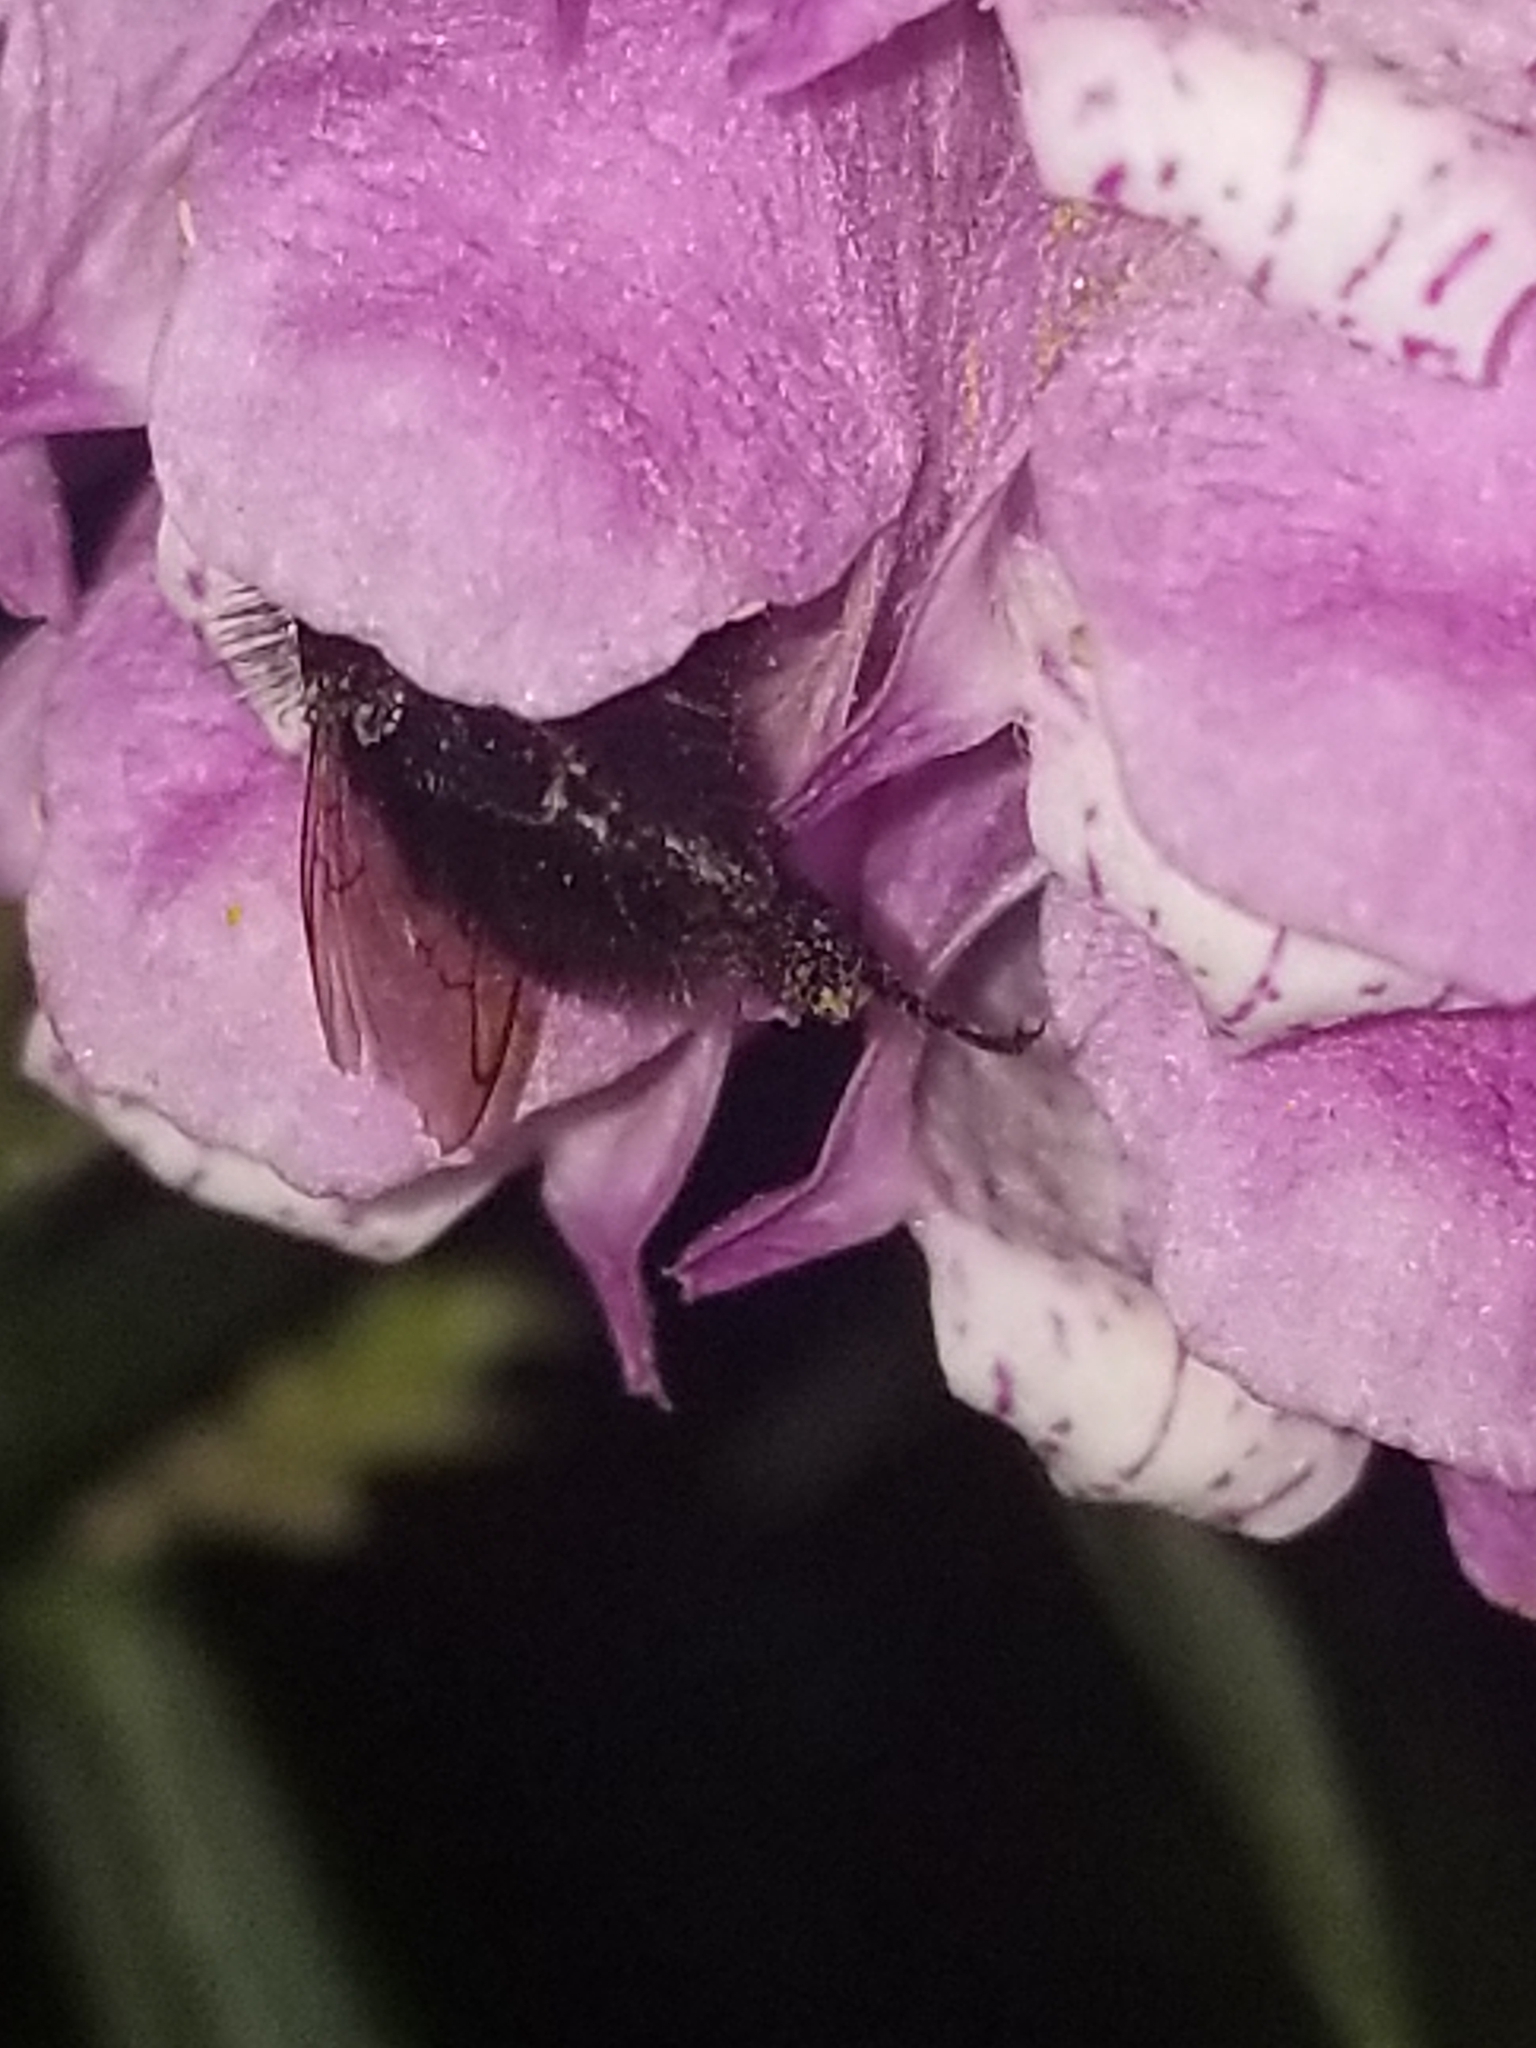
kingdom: Animalia
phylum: Arthropoda
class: Insecta
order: Hymenoptera
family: Apidae
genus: Bombus
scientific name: Bombus impatiens
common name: Common eastern bumble bee
